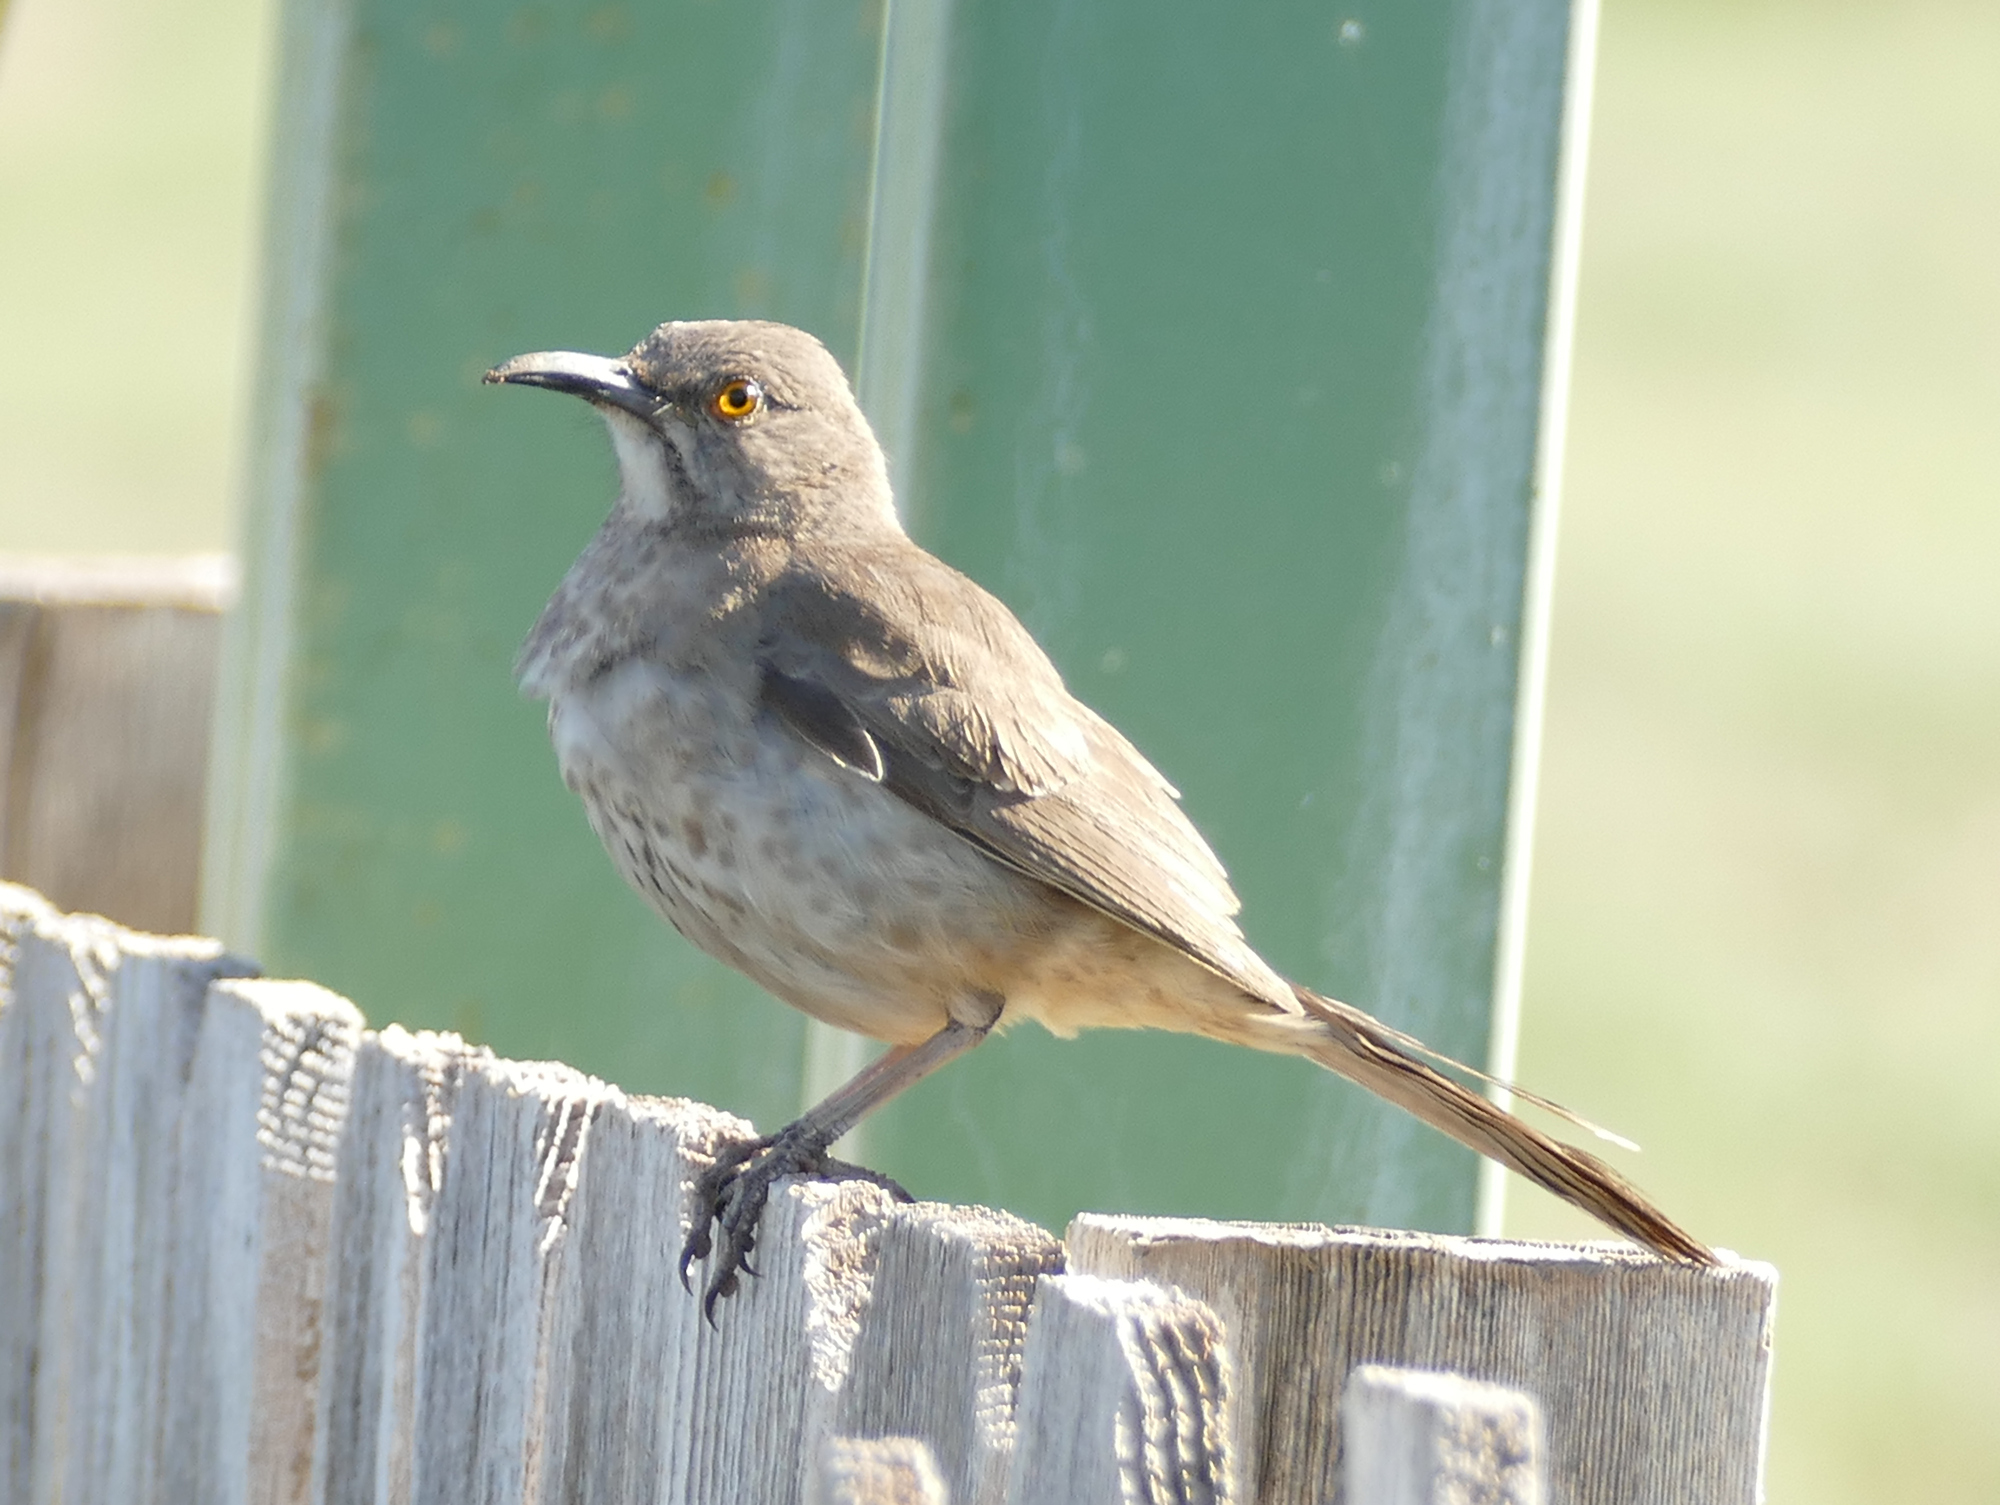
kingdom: Animalia
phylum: Chordata
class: Aves
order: Passeriformes
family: Mimidae
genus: Toxostoma
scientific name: Toxostoma curvirostre
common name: Curve-billed thrasher
